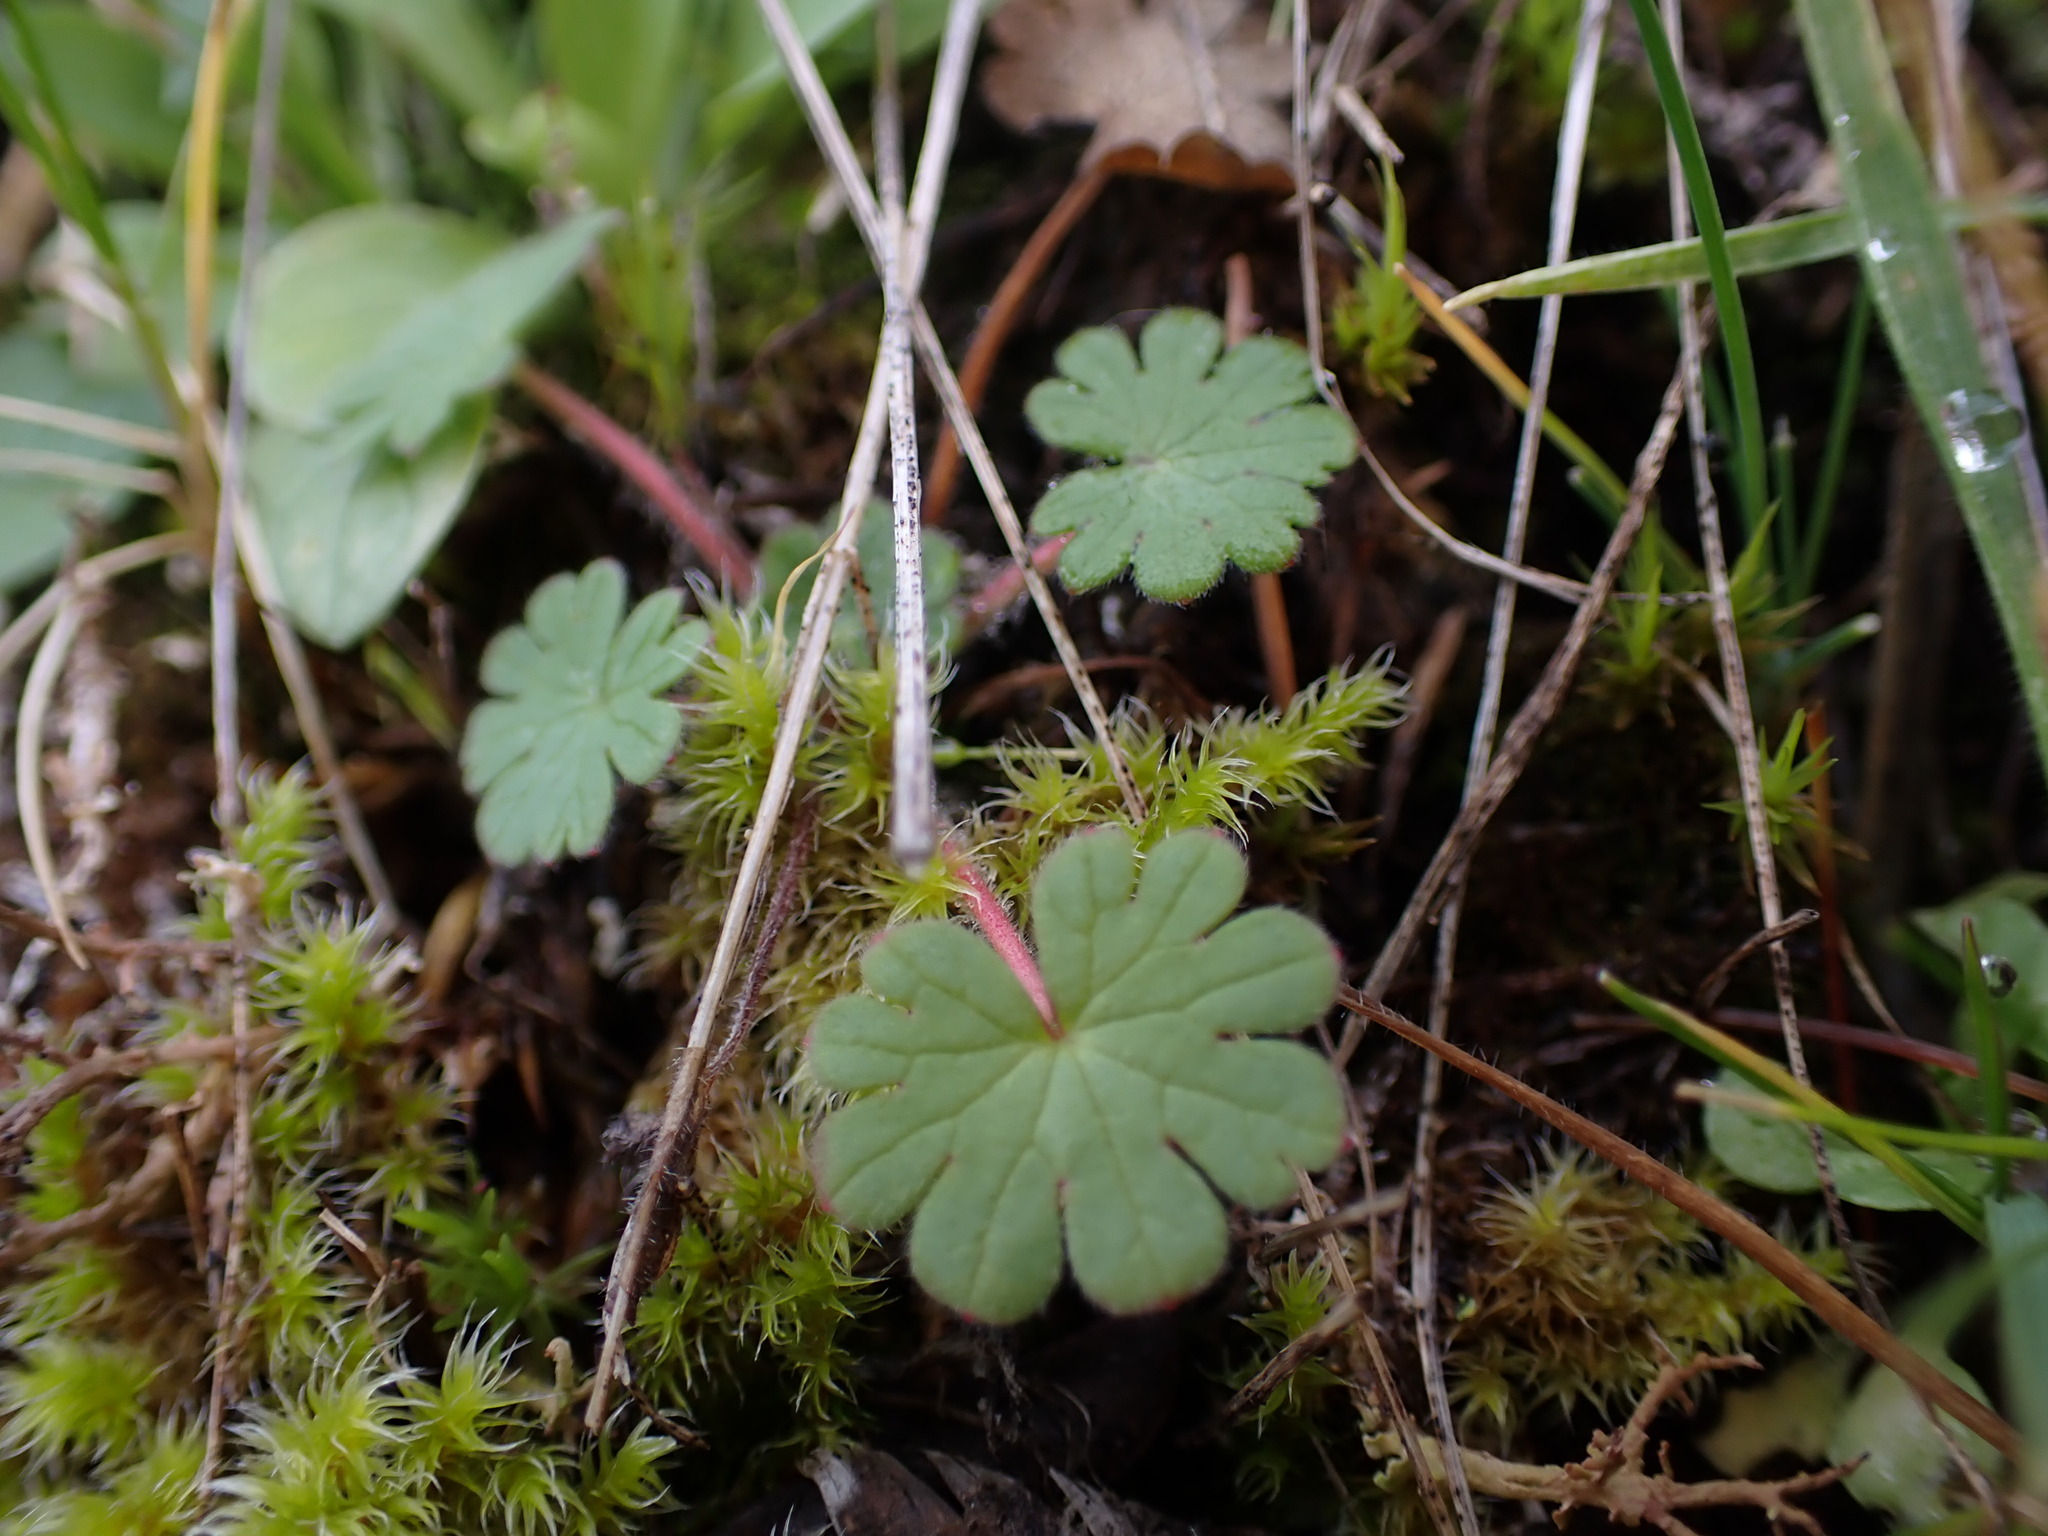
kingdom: Plantae
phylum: Tracheophyta
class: Magnoliopsida
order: Geraniales
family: Geraniaceae
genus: Geranium
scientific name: Geranium molle
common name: Dove's-foot crane's-bill
